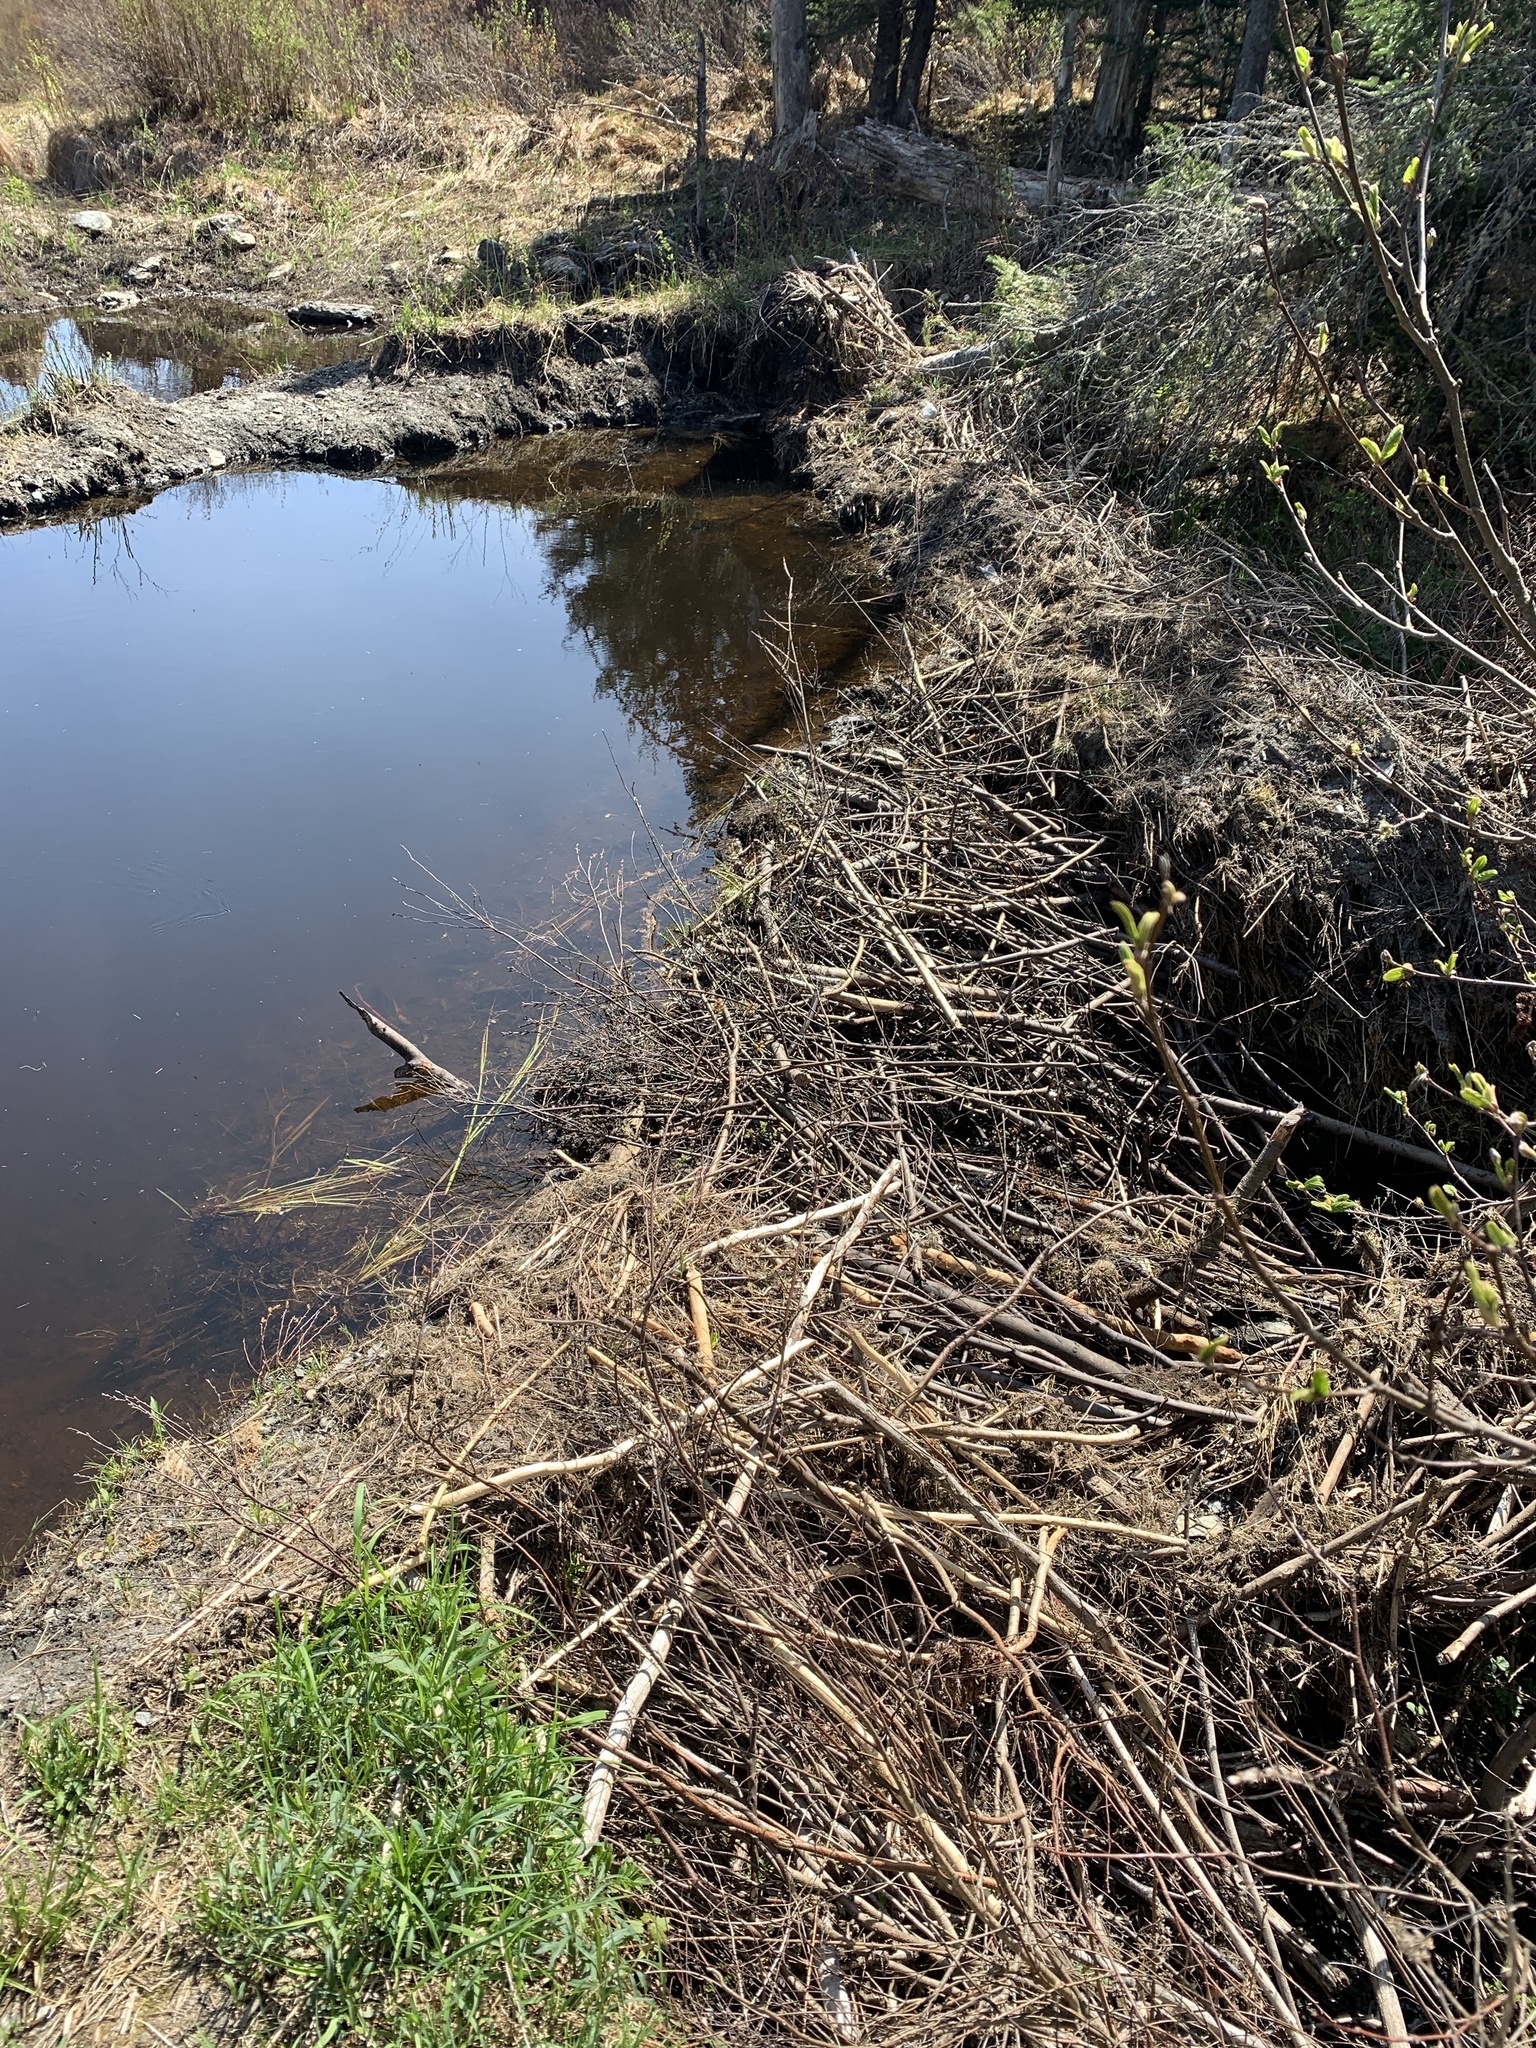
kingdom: Animalia
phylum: Chordata
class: Mammalia
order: Rodentia
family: Castoridae
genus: Castor
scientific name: Castor canadensis
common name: American beaver
